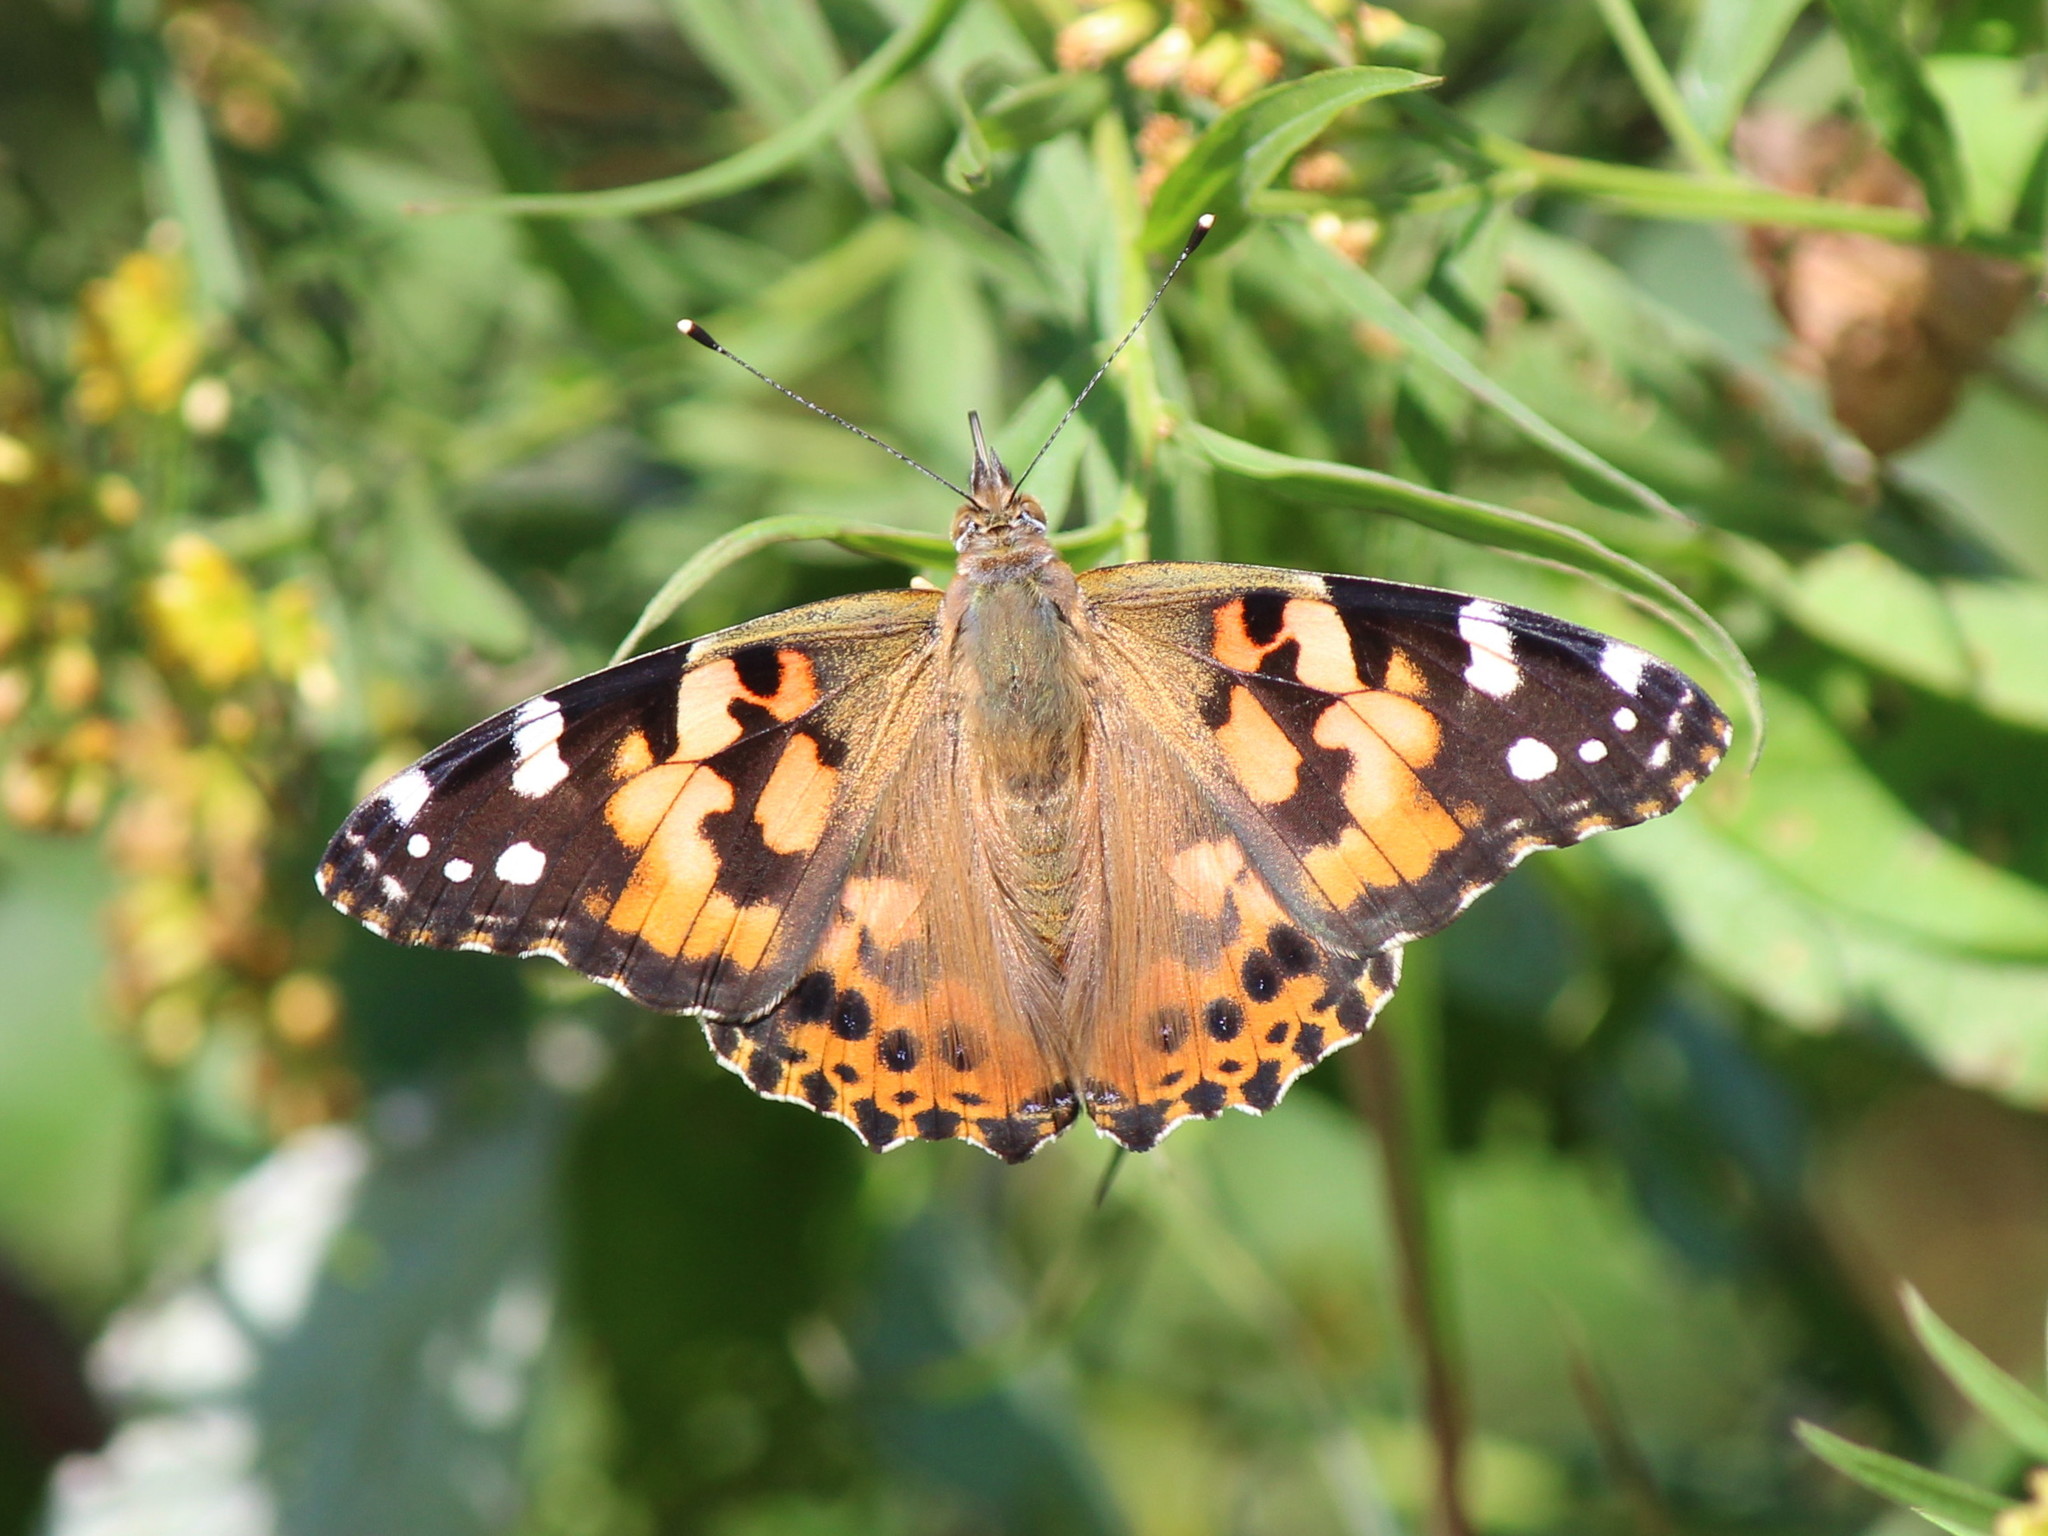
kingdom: Animalia
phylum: Arthropoda
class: Insecta
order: Lepidoptera
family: Nymphalidae
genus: Vanessa
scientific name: Vanessa cardui
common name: Painted lady
